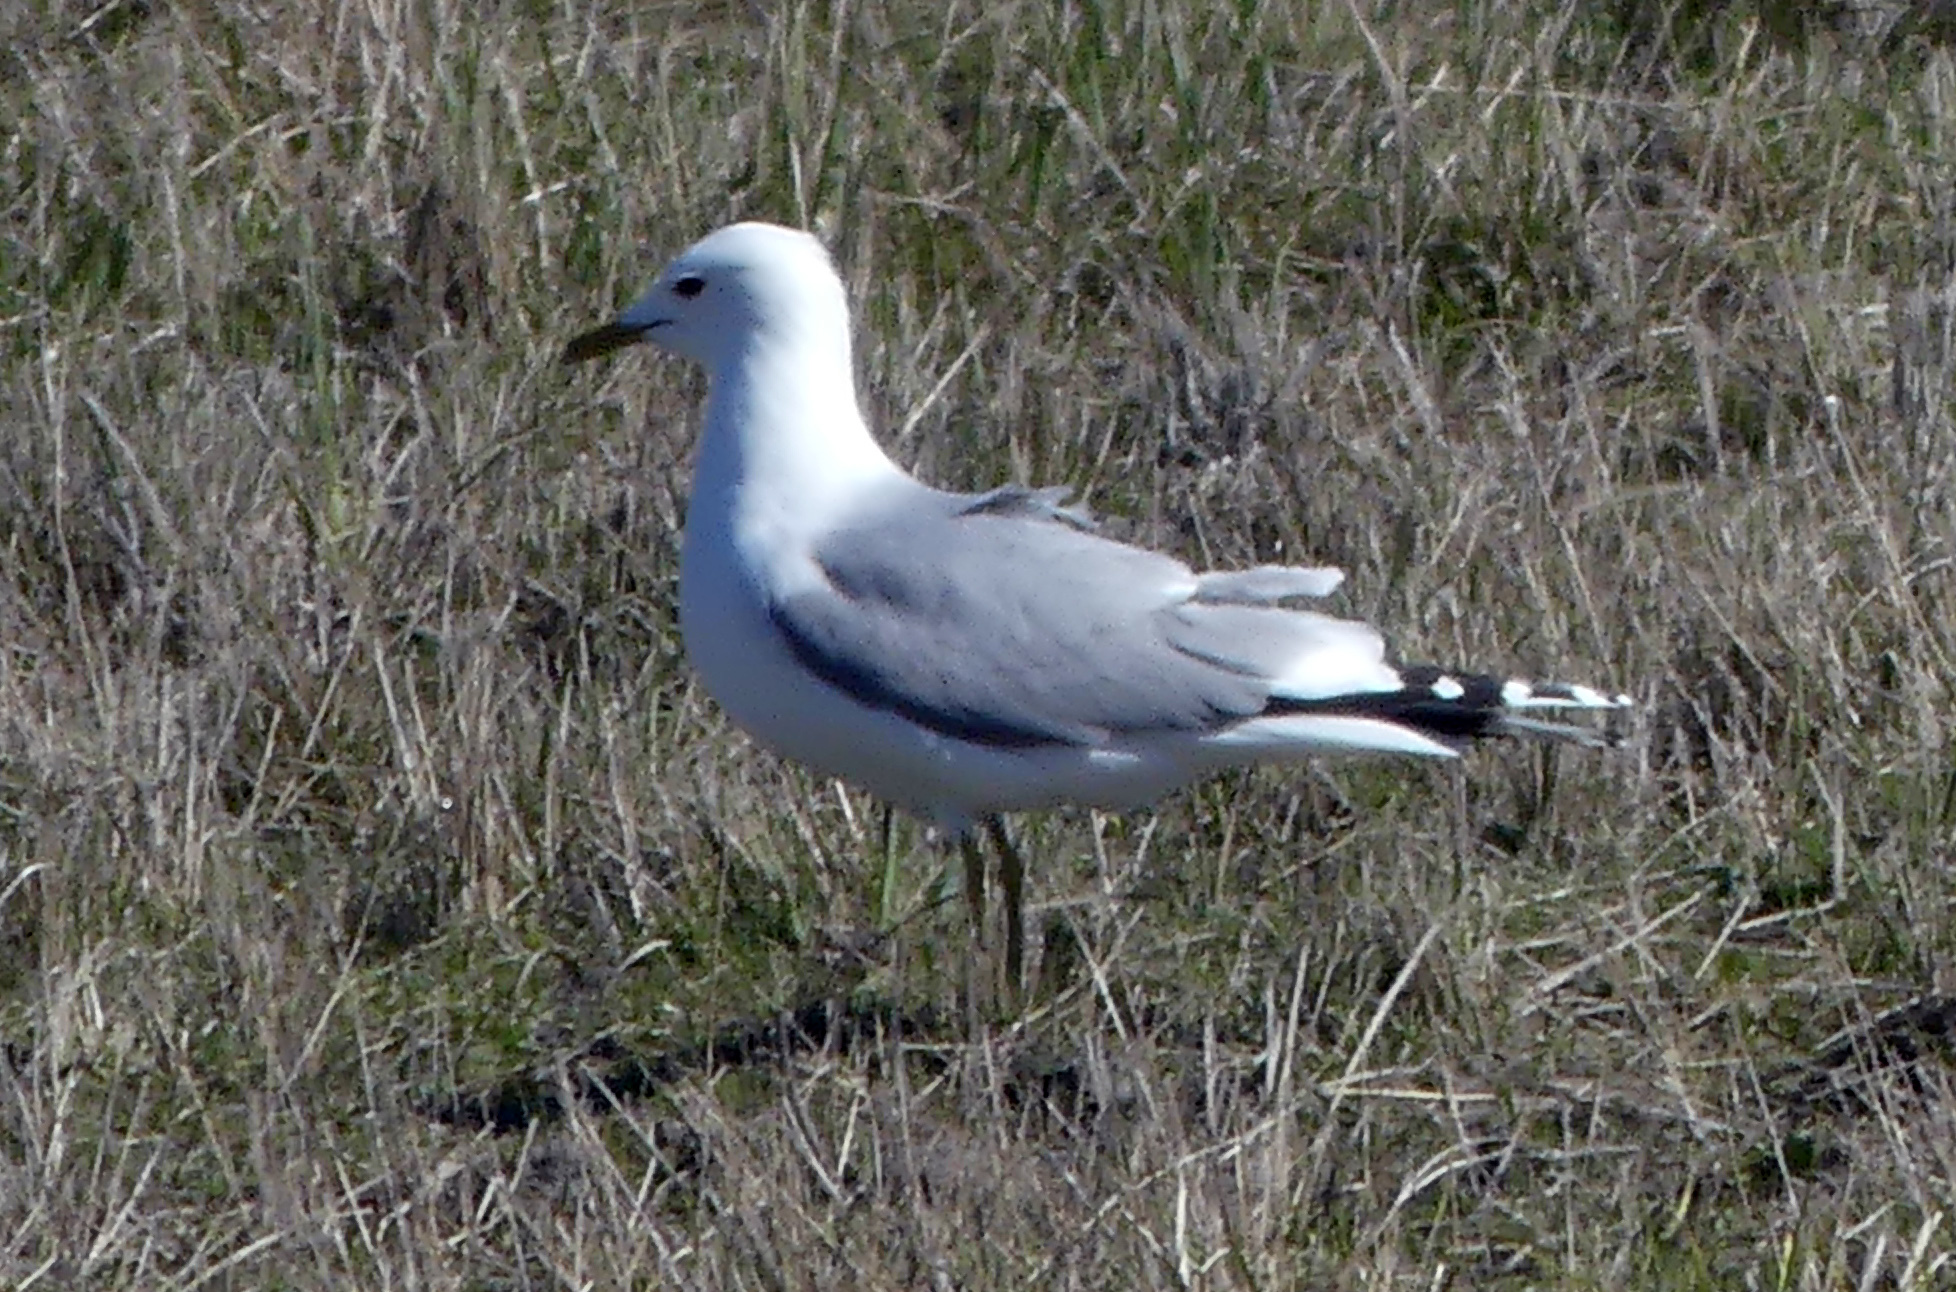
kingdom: Animalia
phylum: Chordata
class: Aves
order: Charadriiformes
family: Laridae
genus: Larus
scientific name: Larus canus
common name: Mew gull
